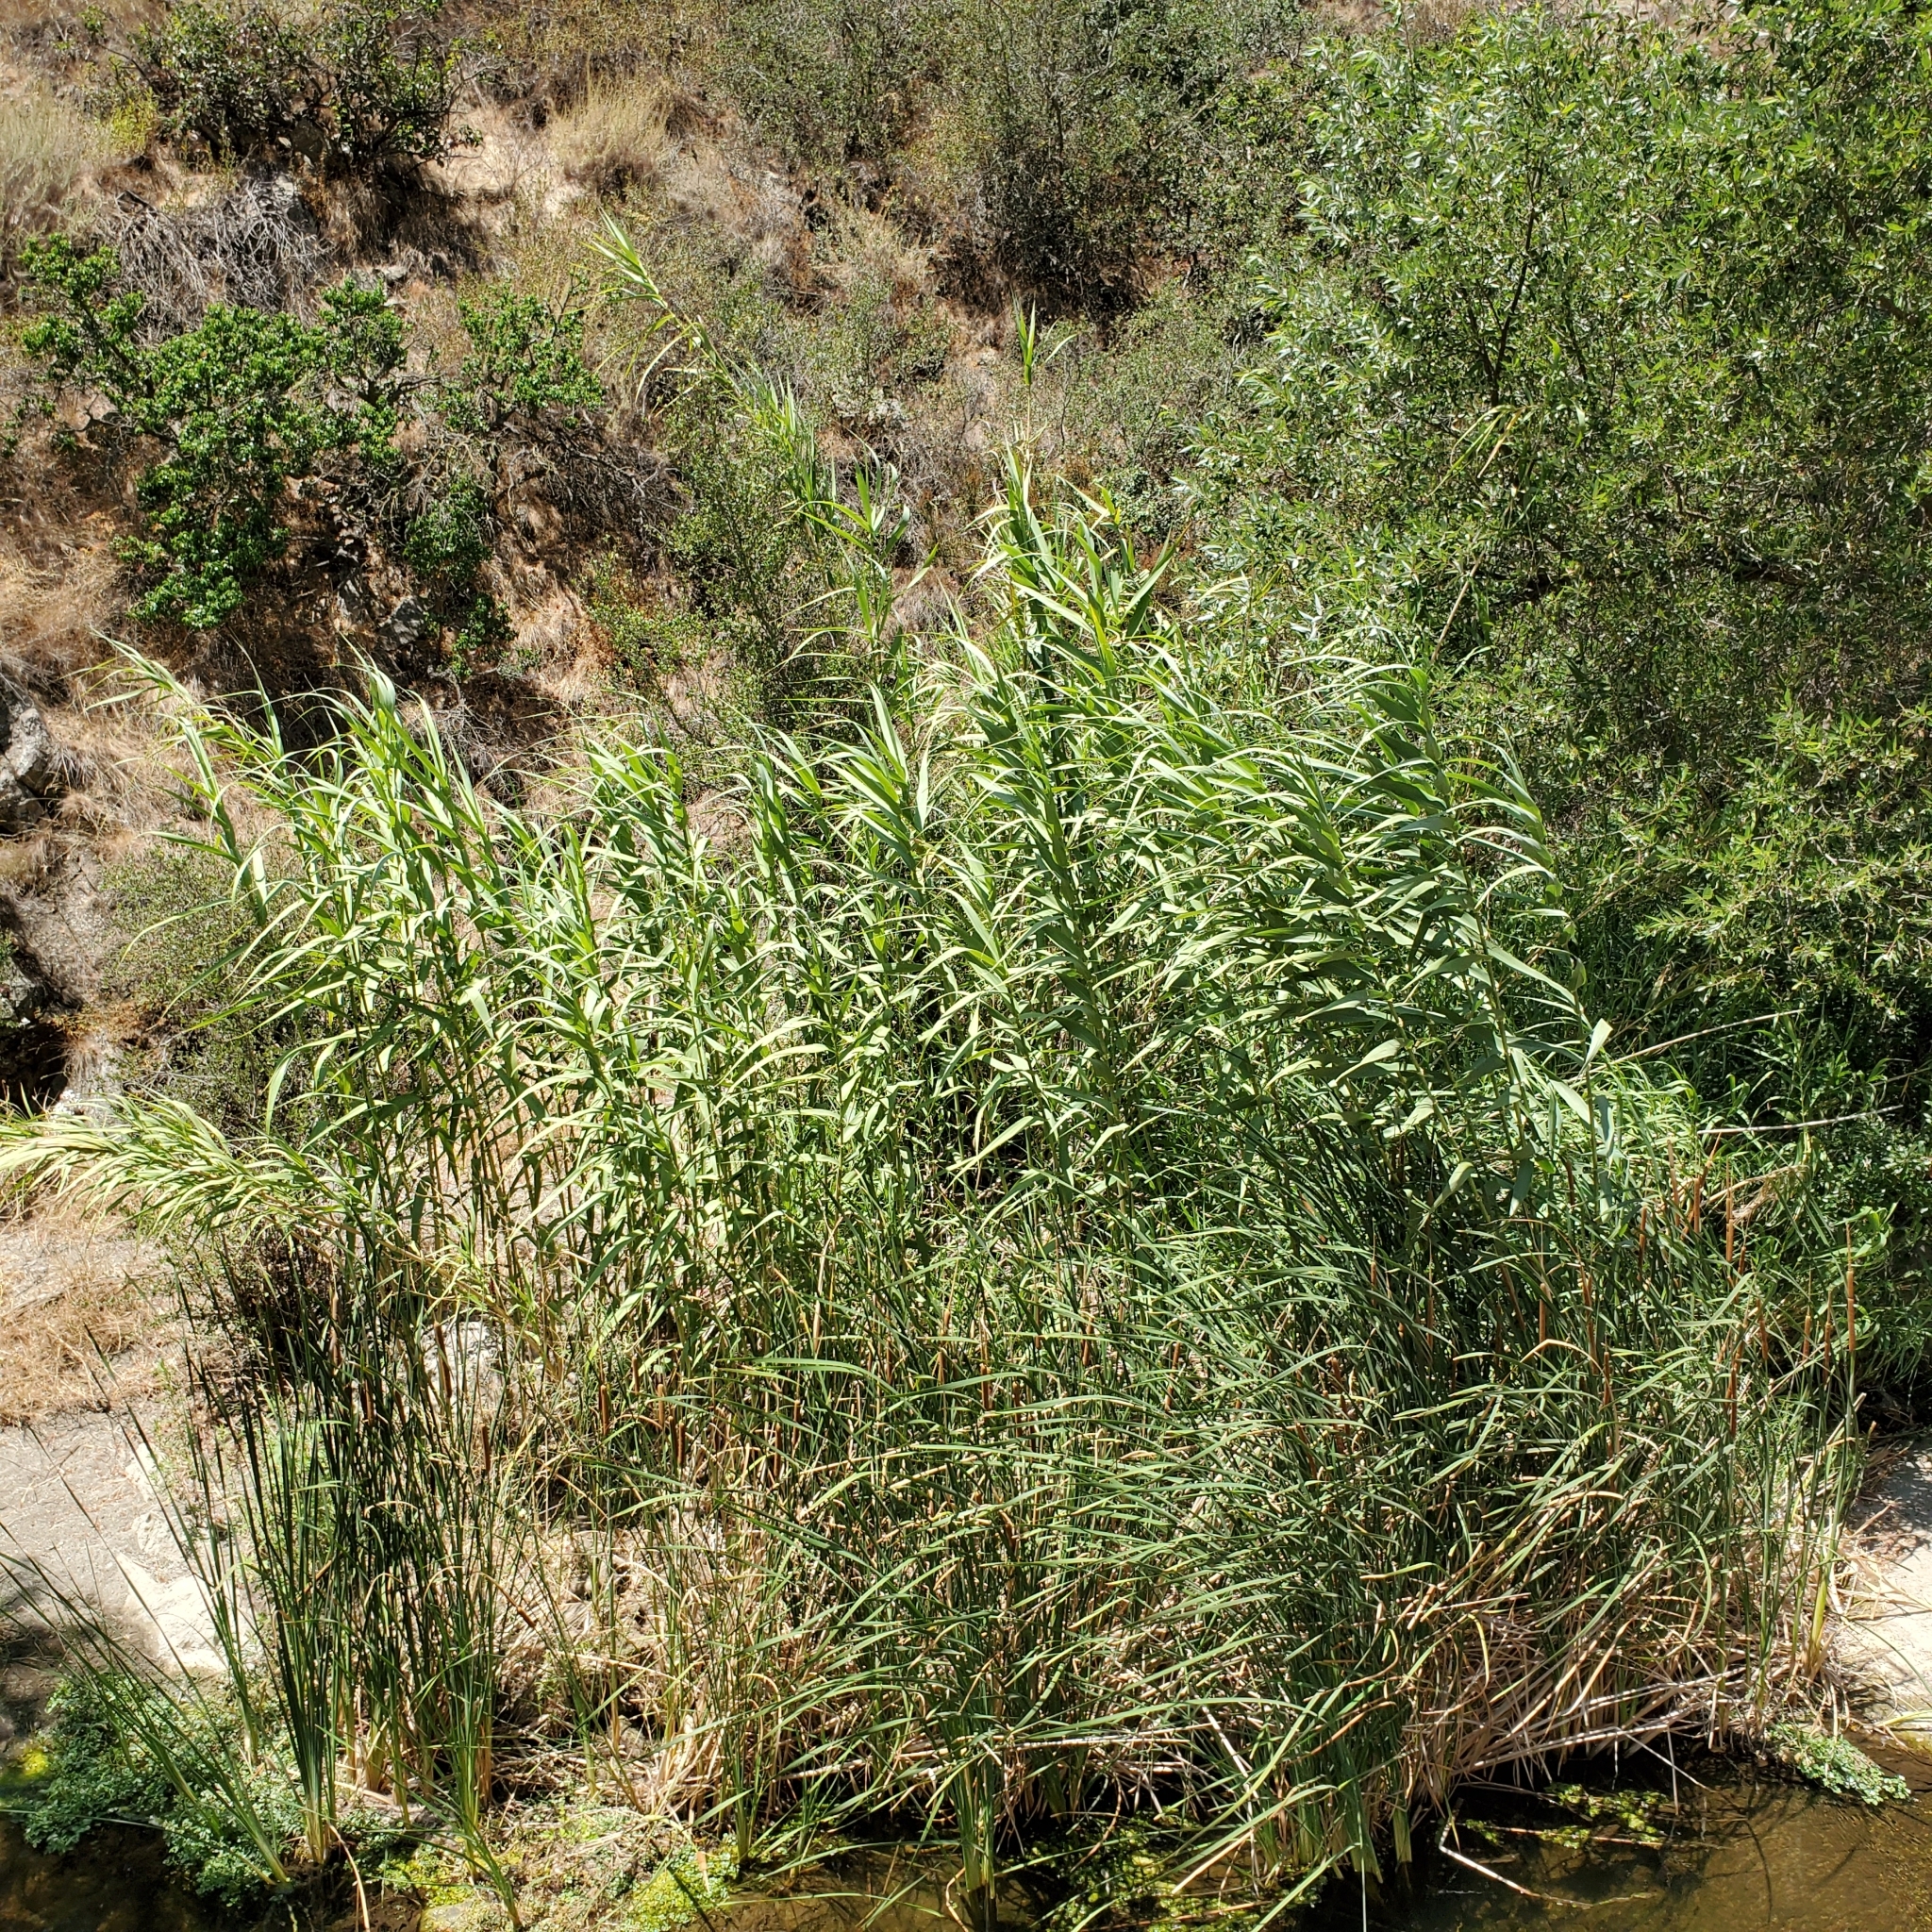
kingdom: Plantae
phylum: Tracheophyta
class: Liliopsida
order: Poales
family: Poaceae
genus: Arundo
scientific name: Arundo donax
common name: Giant reed
